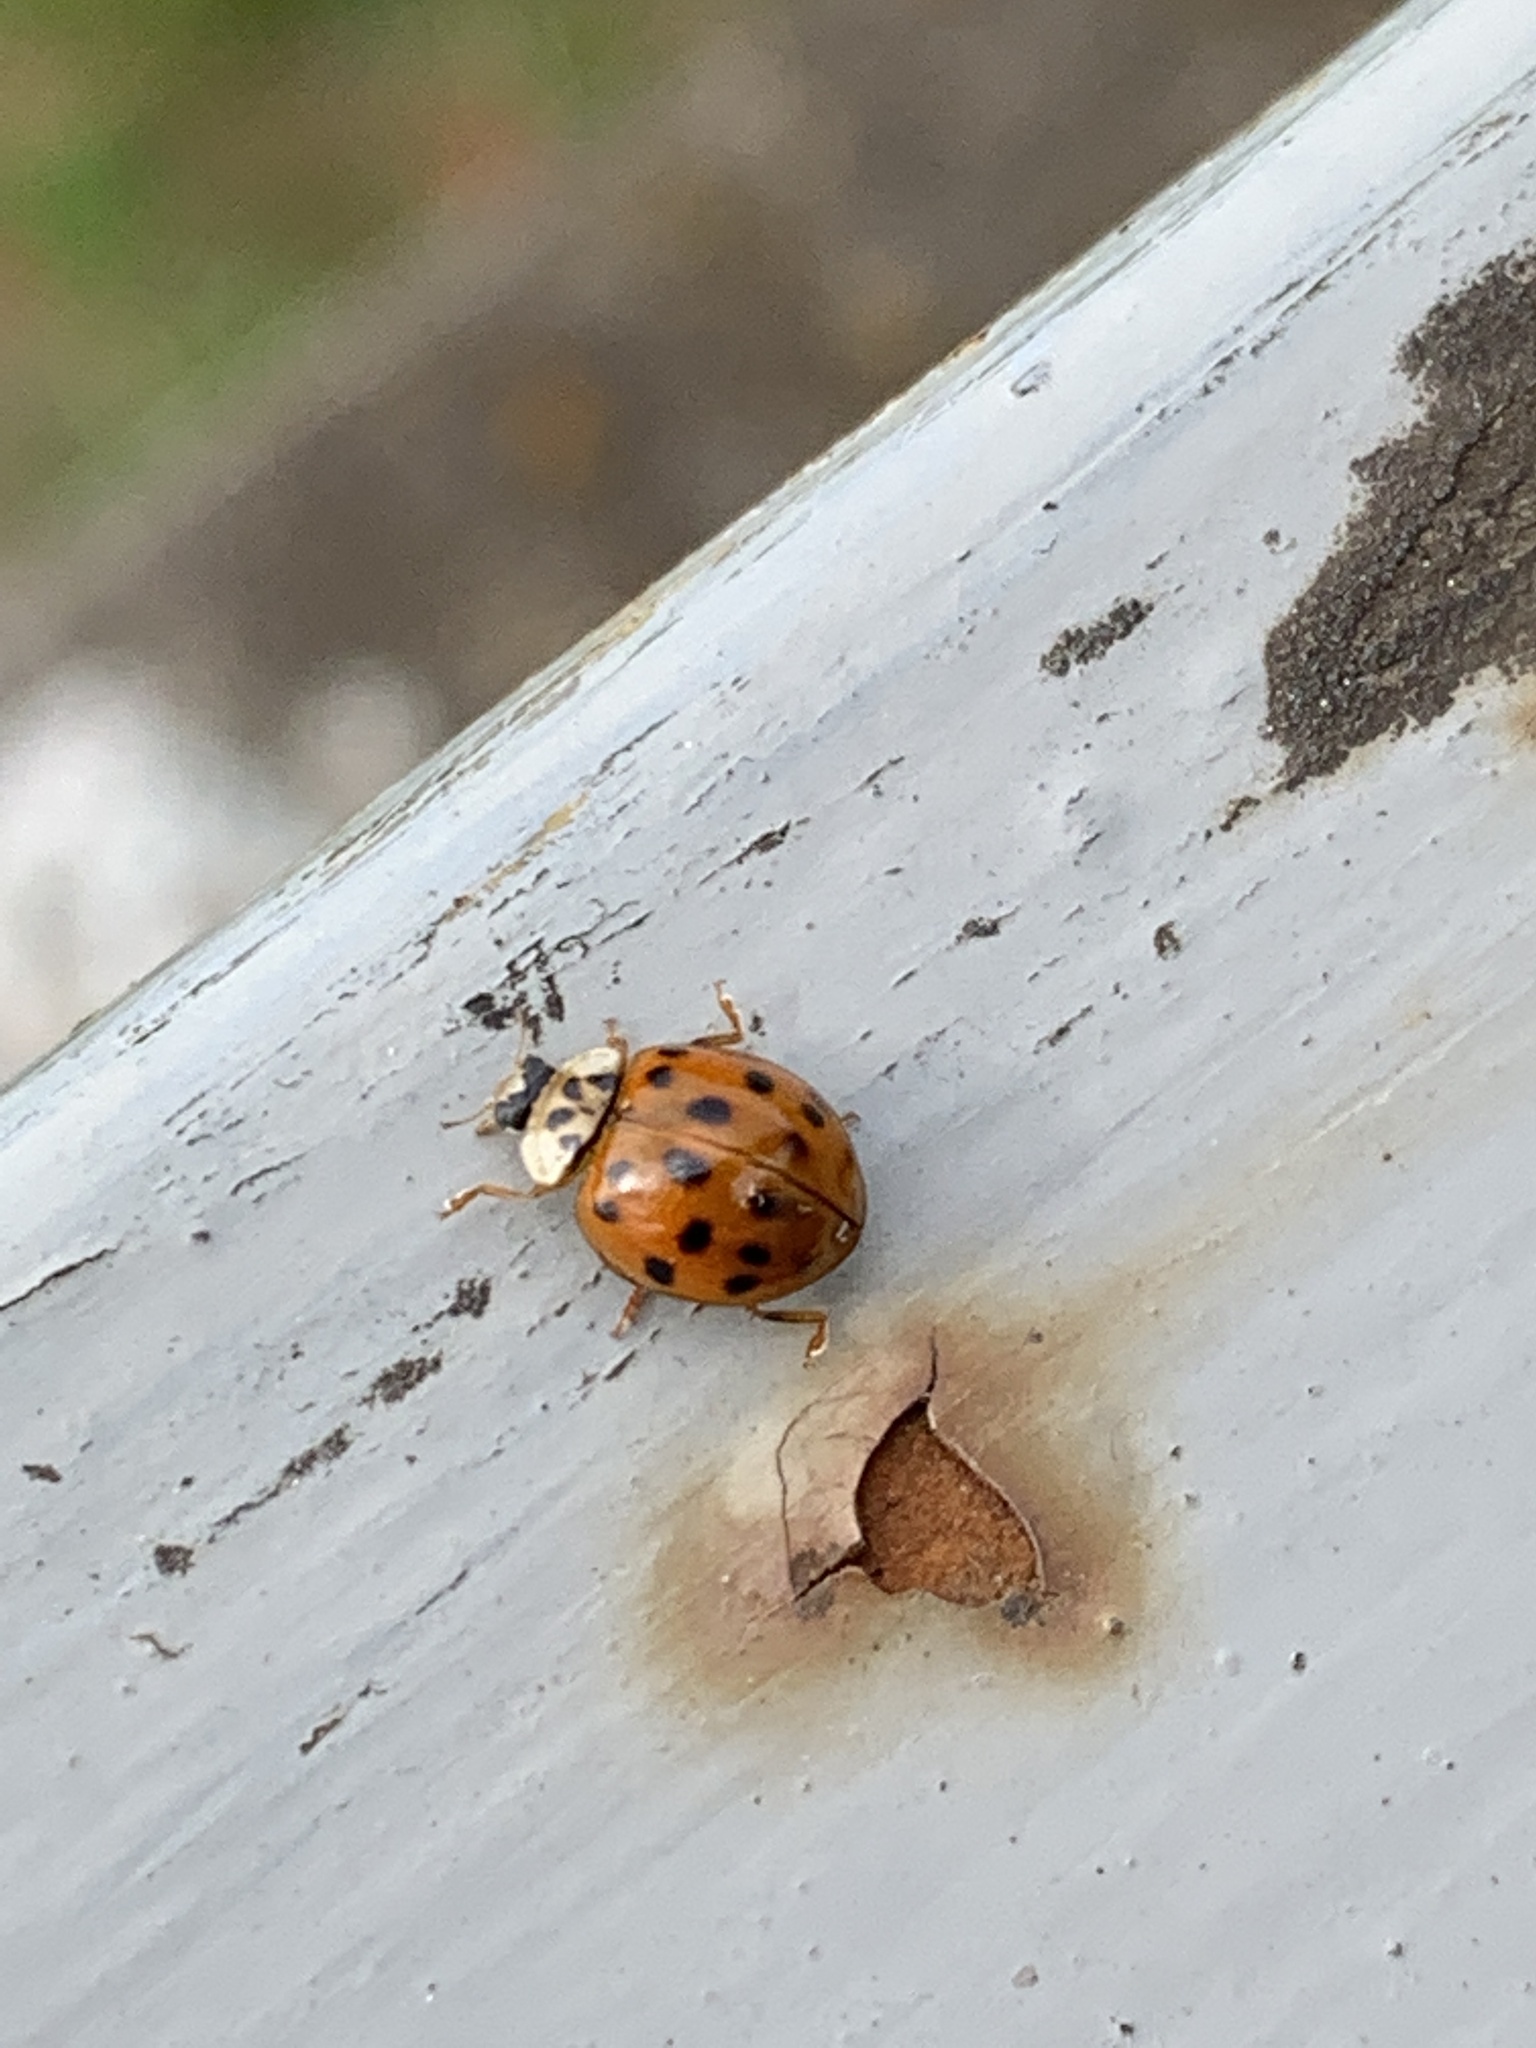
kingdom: Animalia
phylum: Arthropoda
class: Insecta
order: Coleoptera
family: Coccinellidae
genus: Harmonia
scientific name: Harmonia axyridis
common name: Harlequin ladybird
